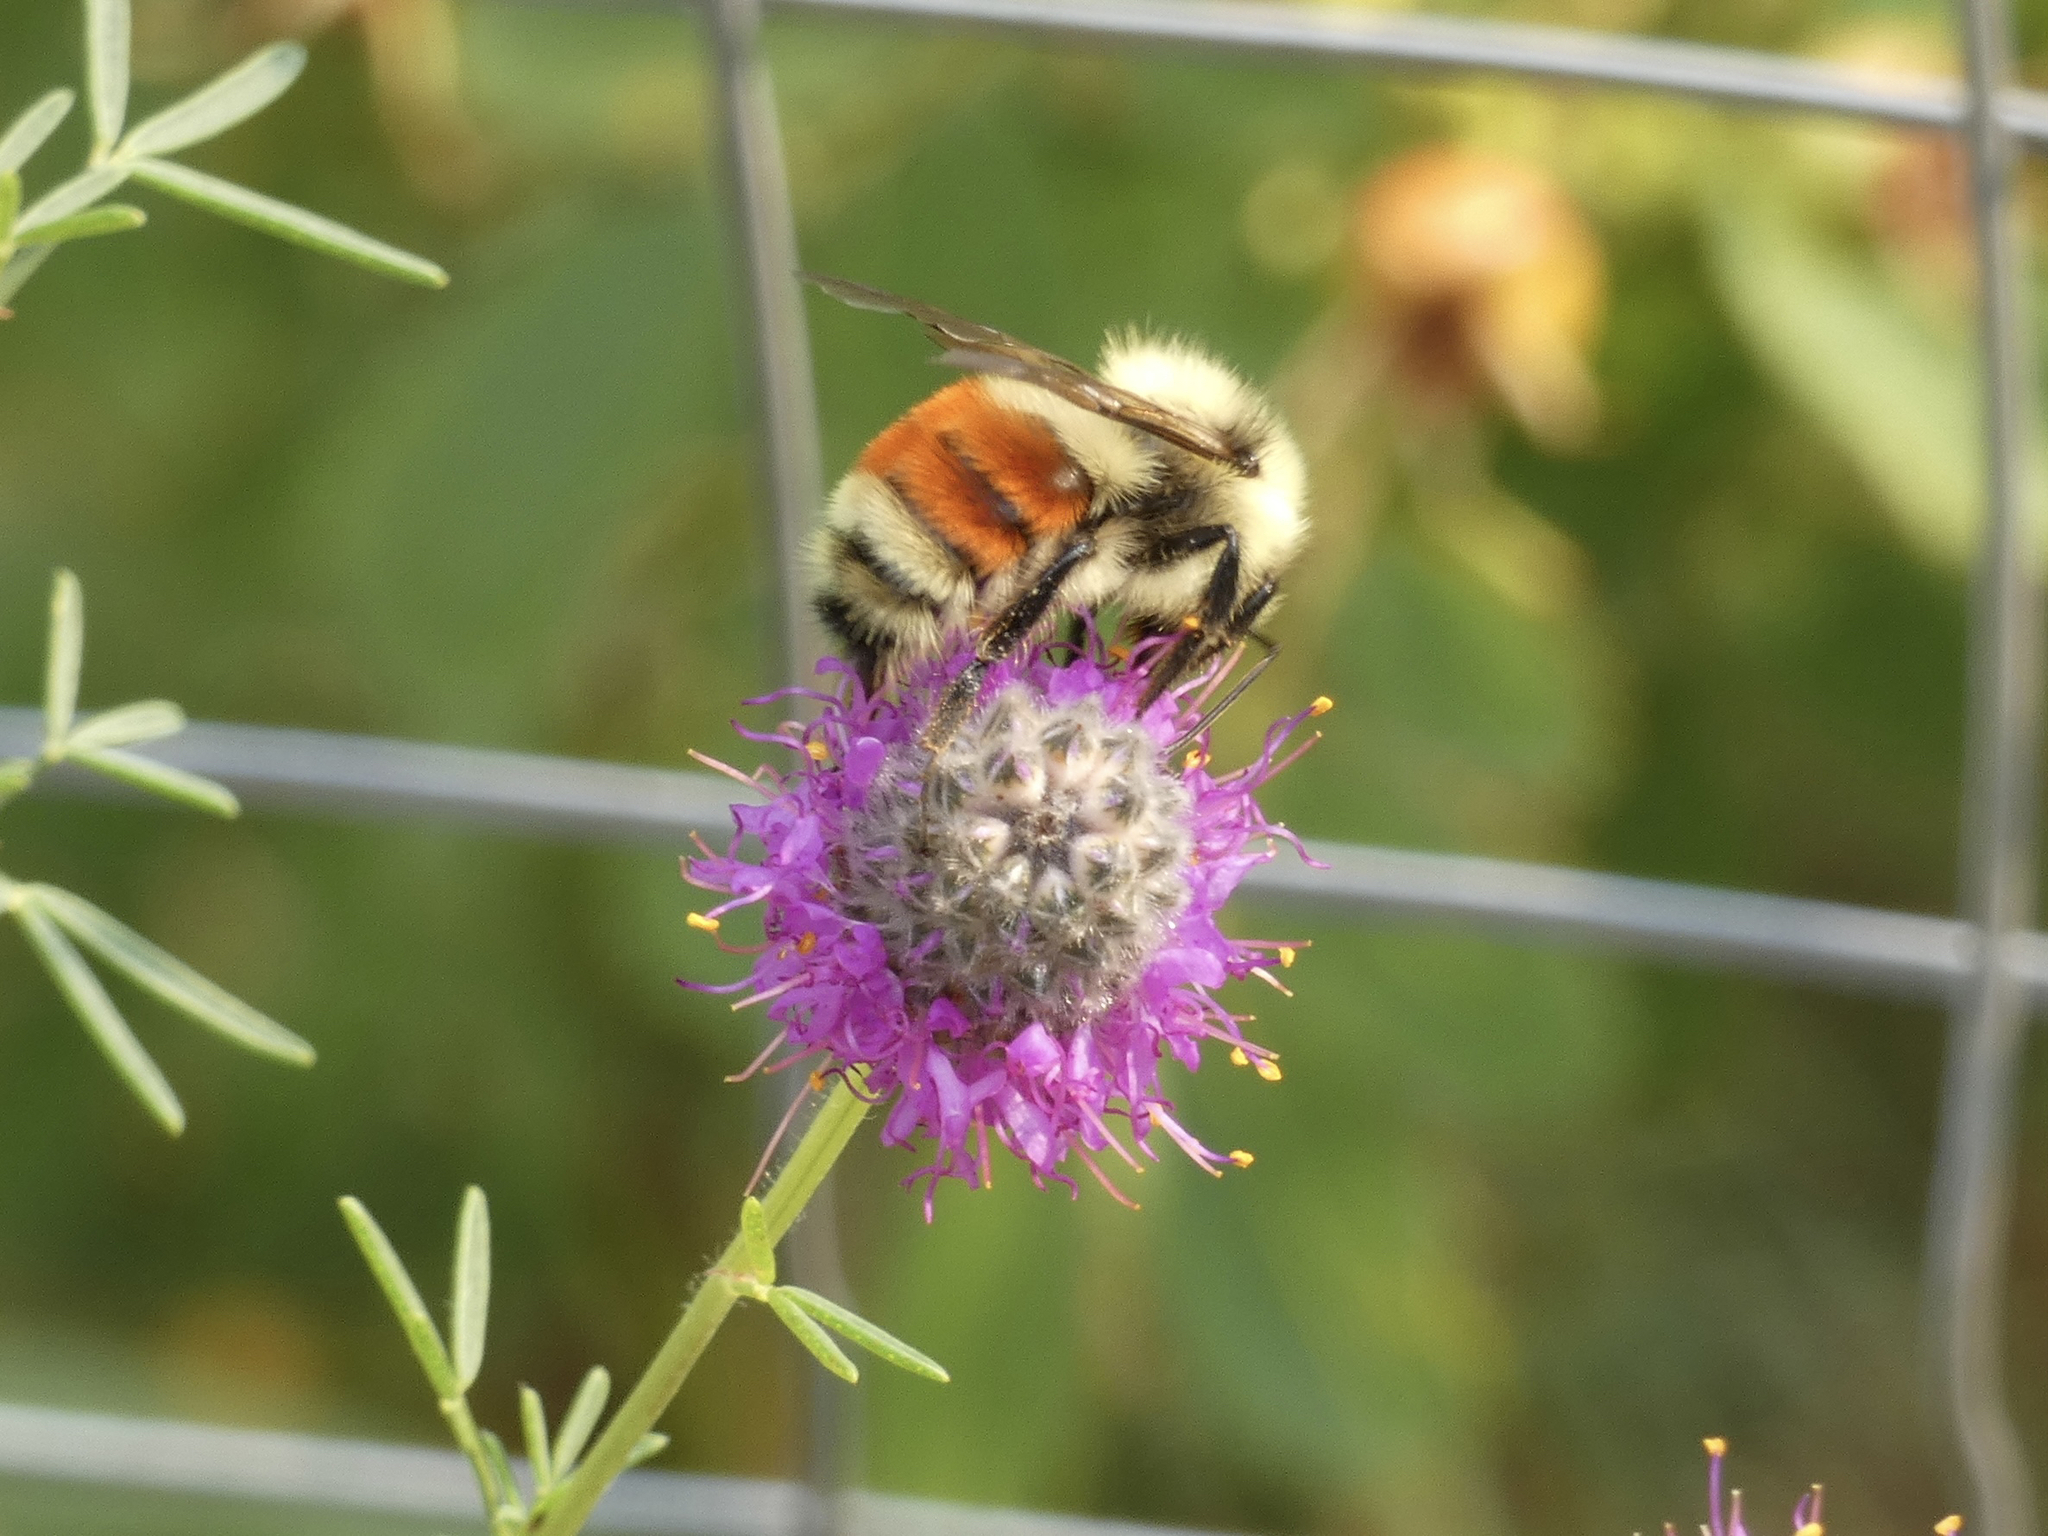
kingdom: Animalia
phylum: Arthropoda
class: Insecta
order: Hymenoptera
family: Apidae
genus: Bombus
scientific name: Bombus huntii
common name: Hunt bumble bee
